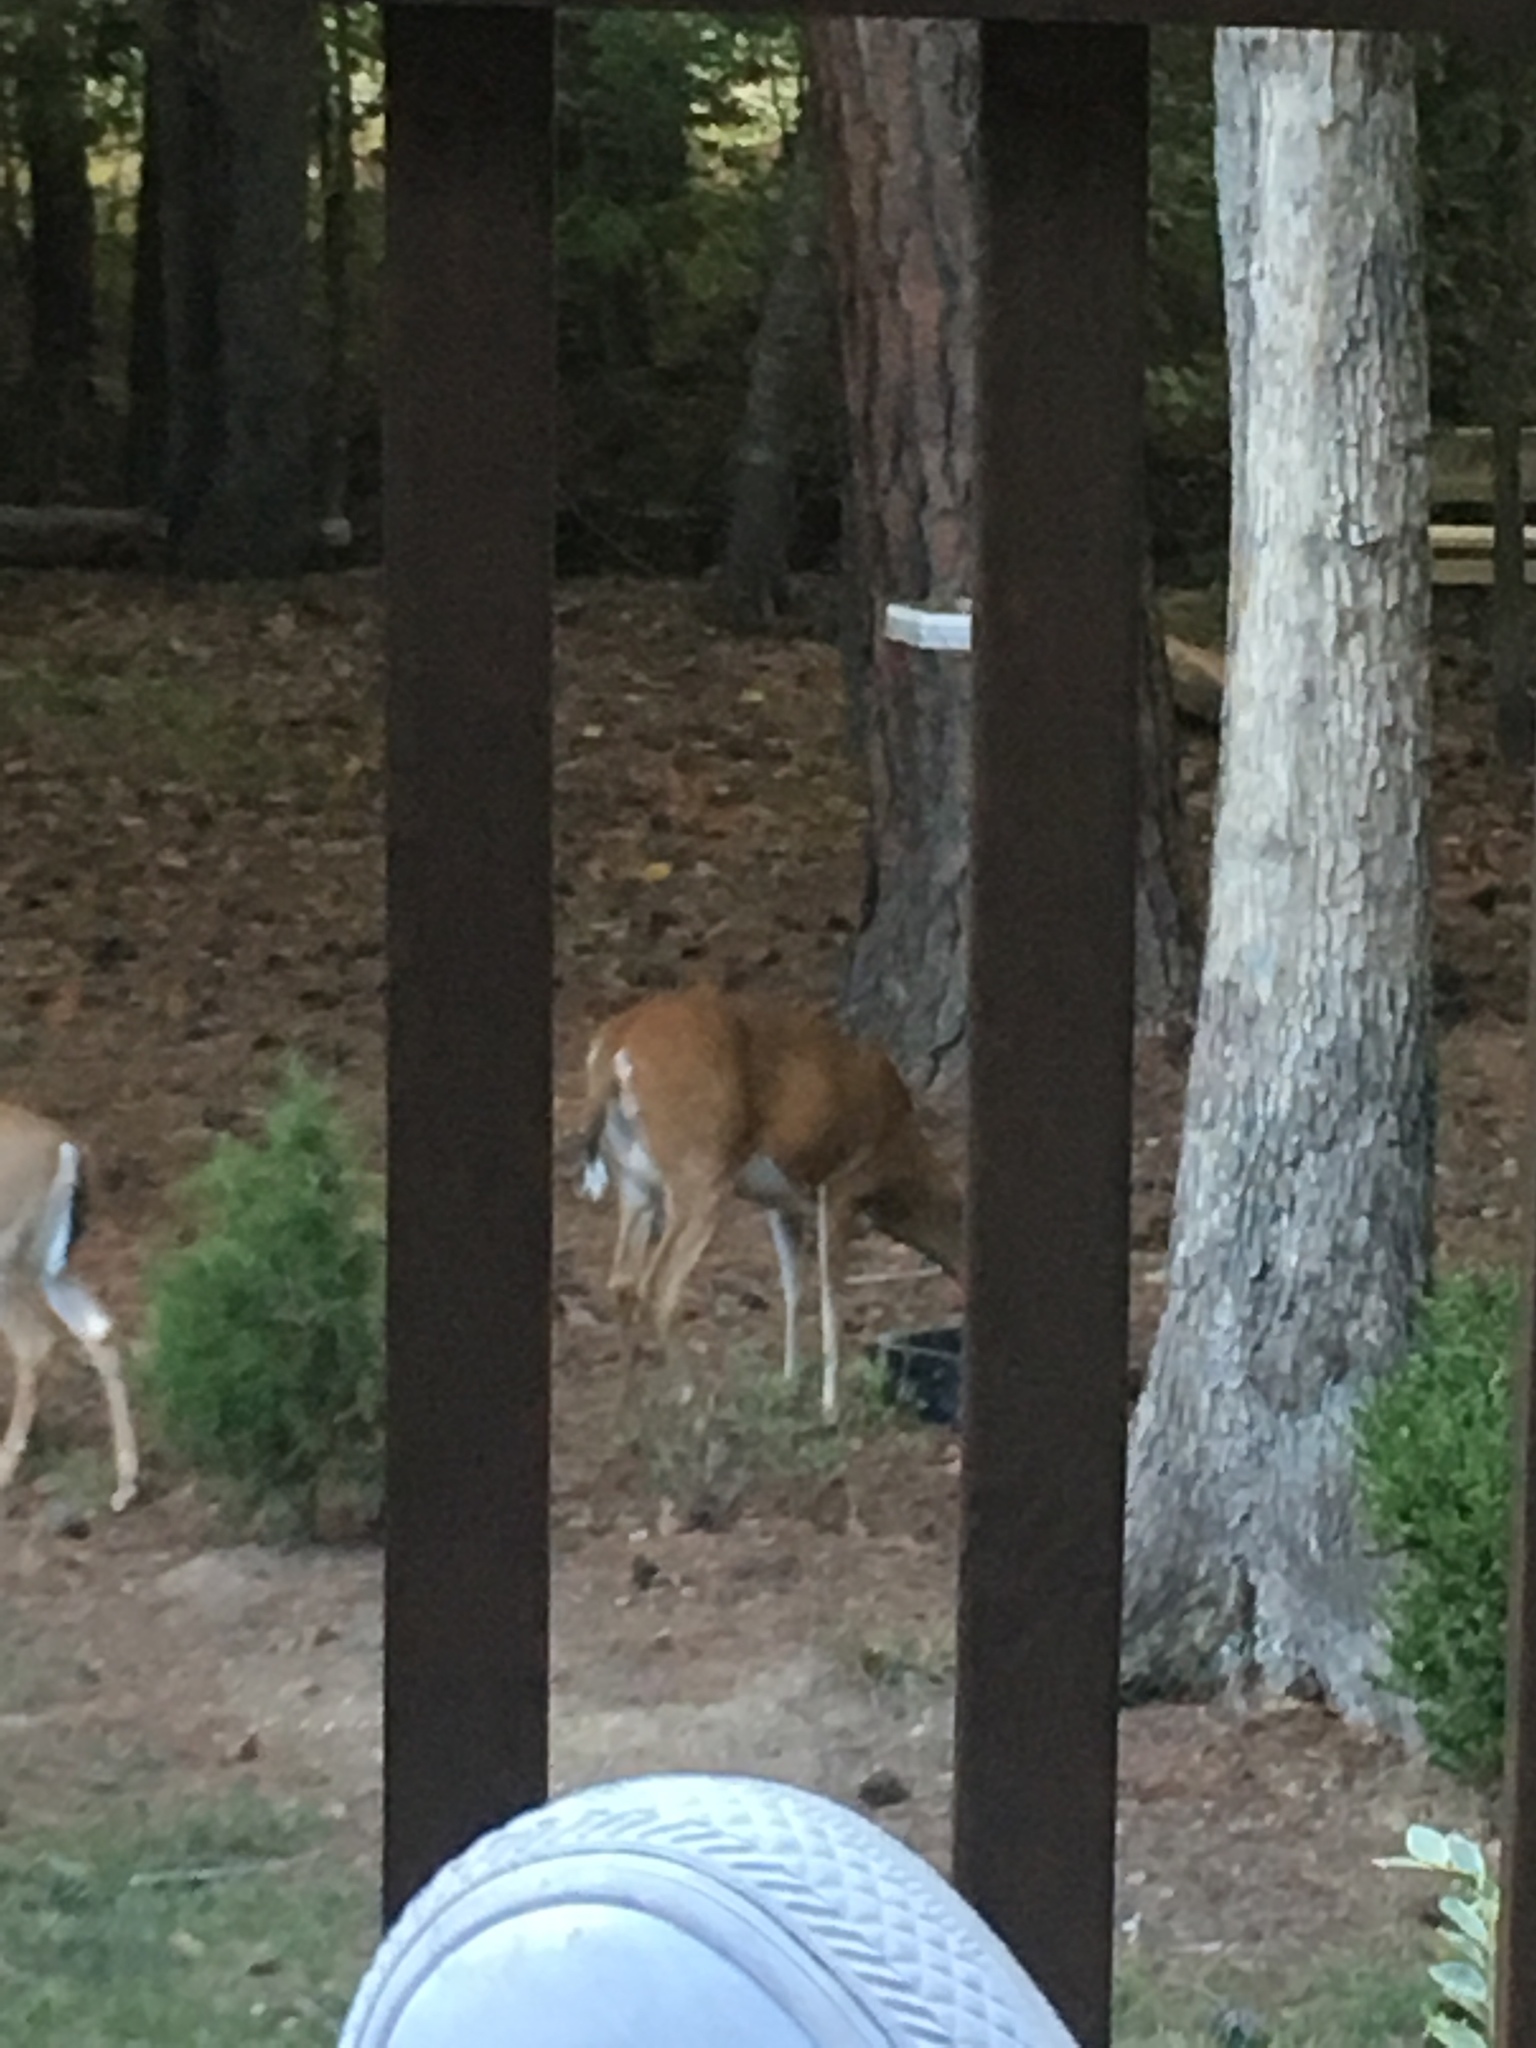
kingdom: Animalia
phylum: Chordata
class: Mammalia
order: Artiodactyla
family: Cervidae
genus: Odocoileus
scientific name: Odocoileus virginianus
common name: White-tailed deer
